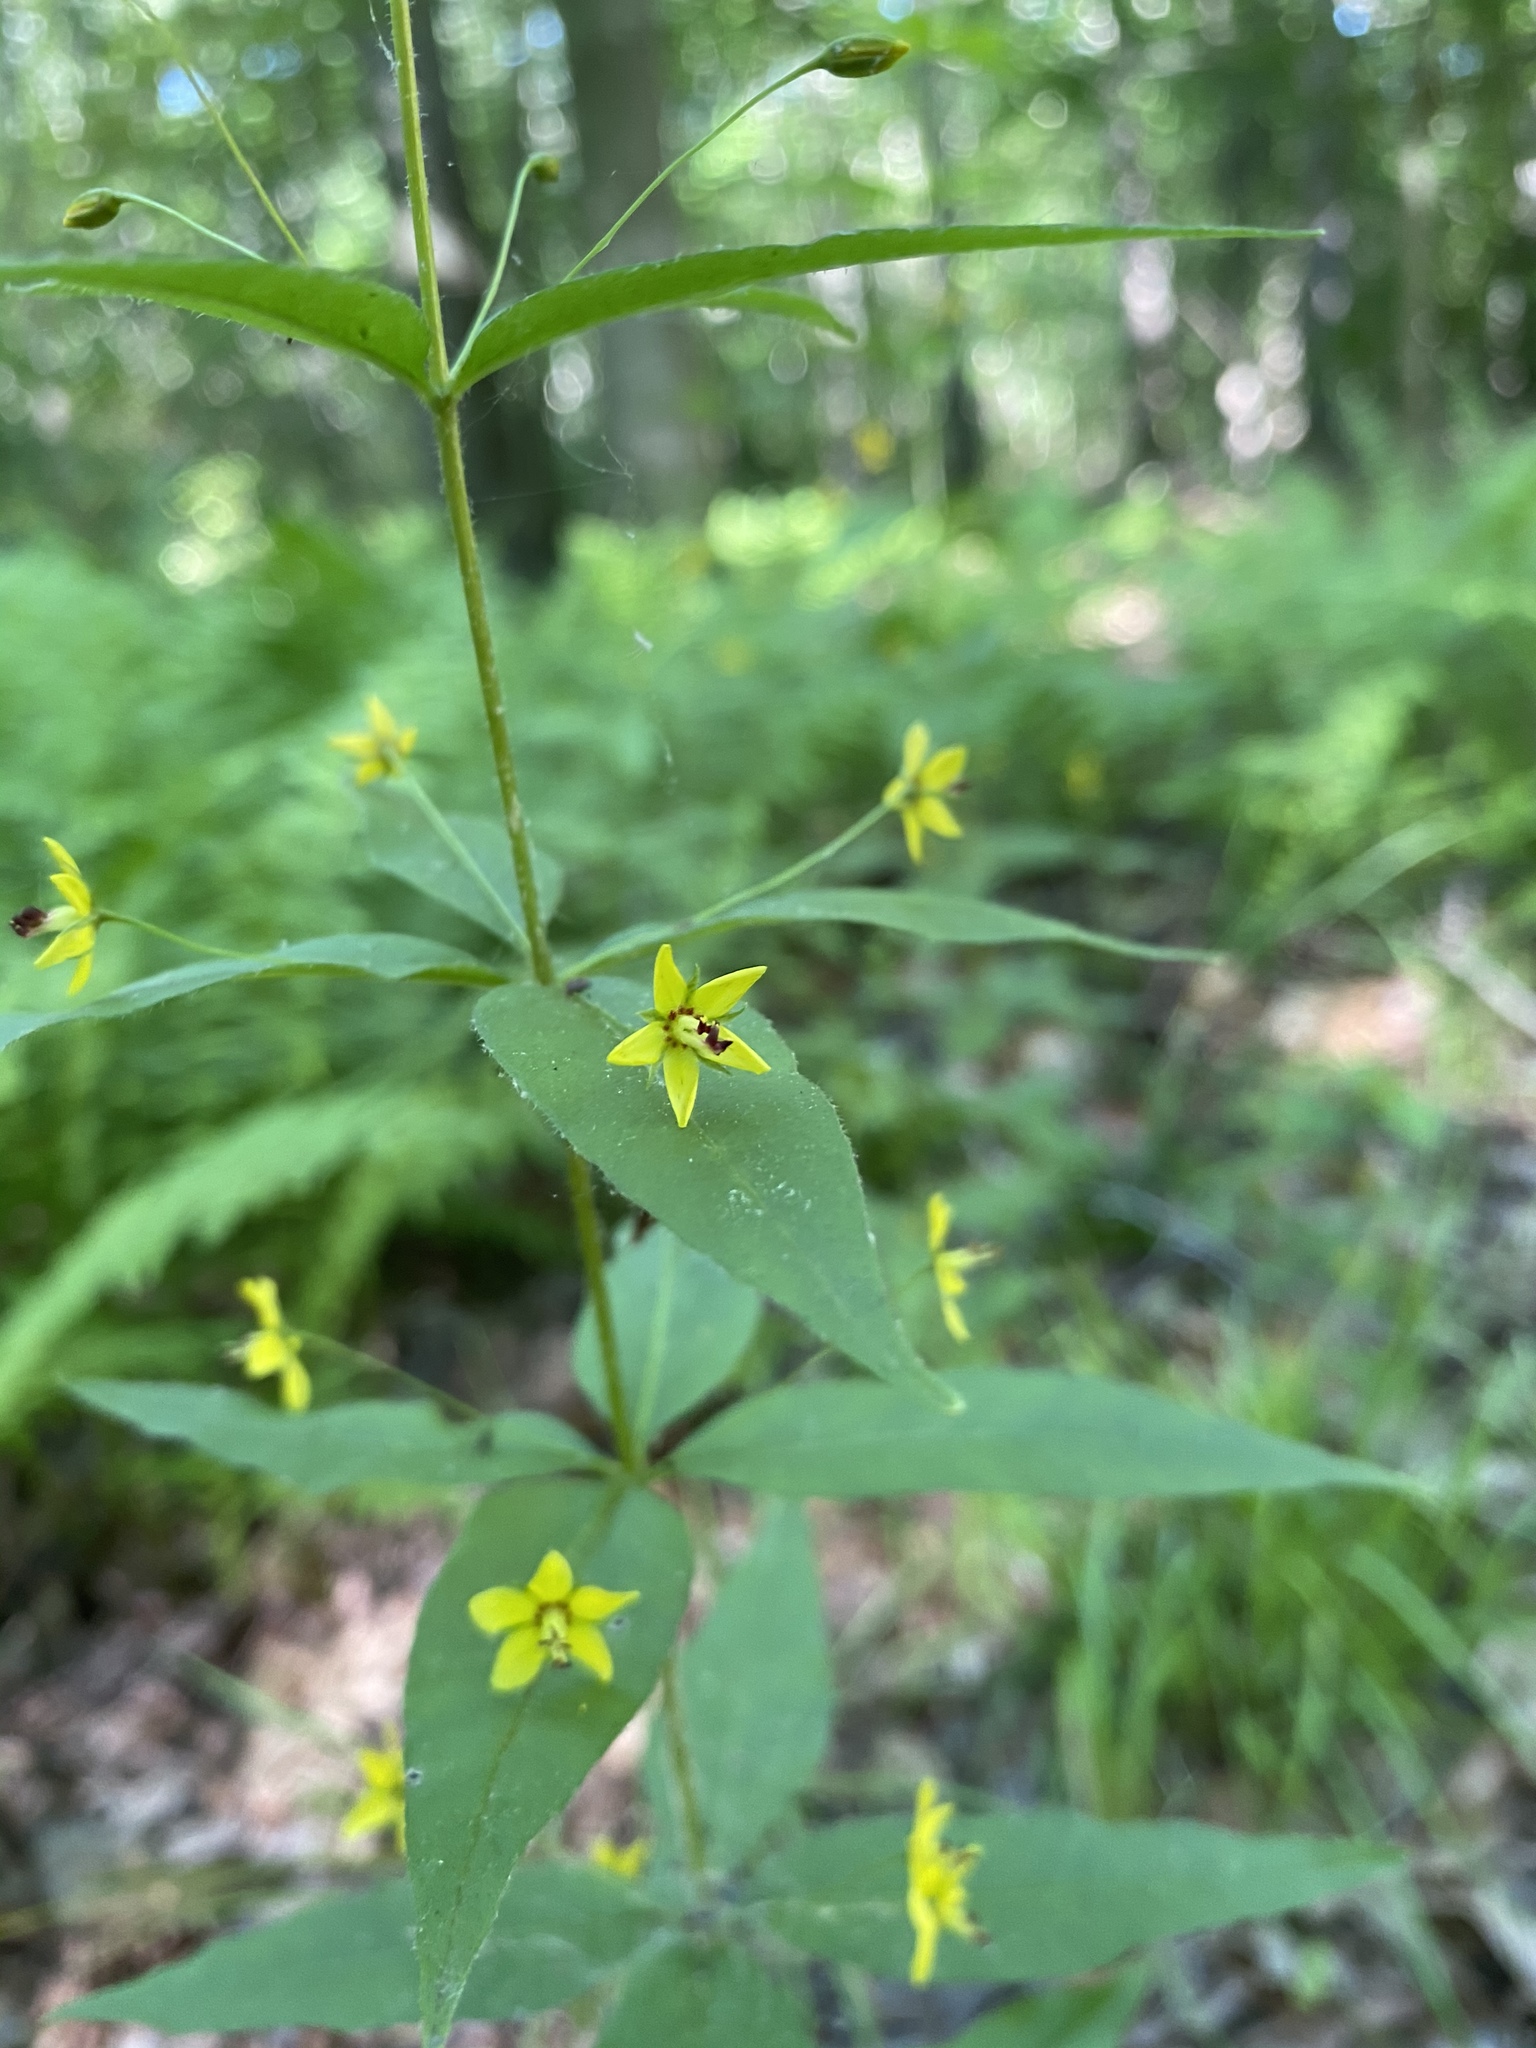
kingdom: Plantae
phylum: Tracheophyta
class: Magnoliopsida
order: Ericales
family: Primulaceae
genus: Lysimachia
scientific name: Lysimachia quadrifolia
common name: Whorled loosestrife
